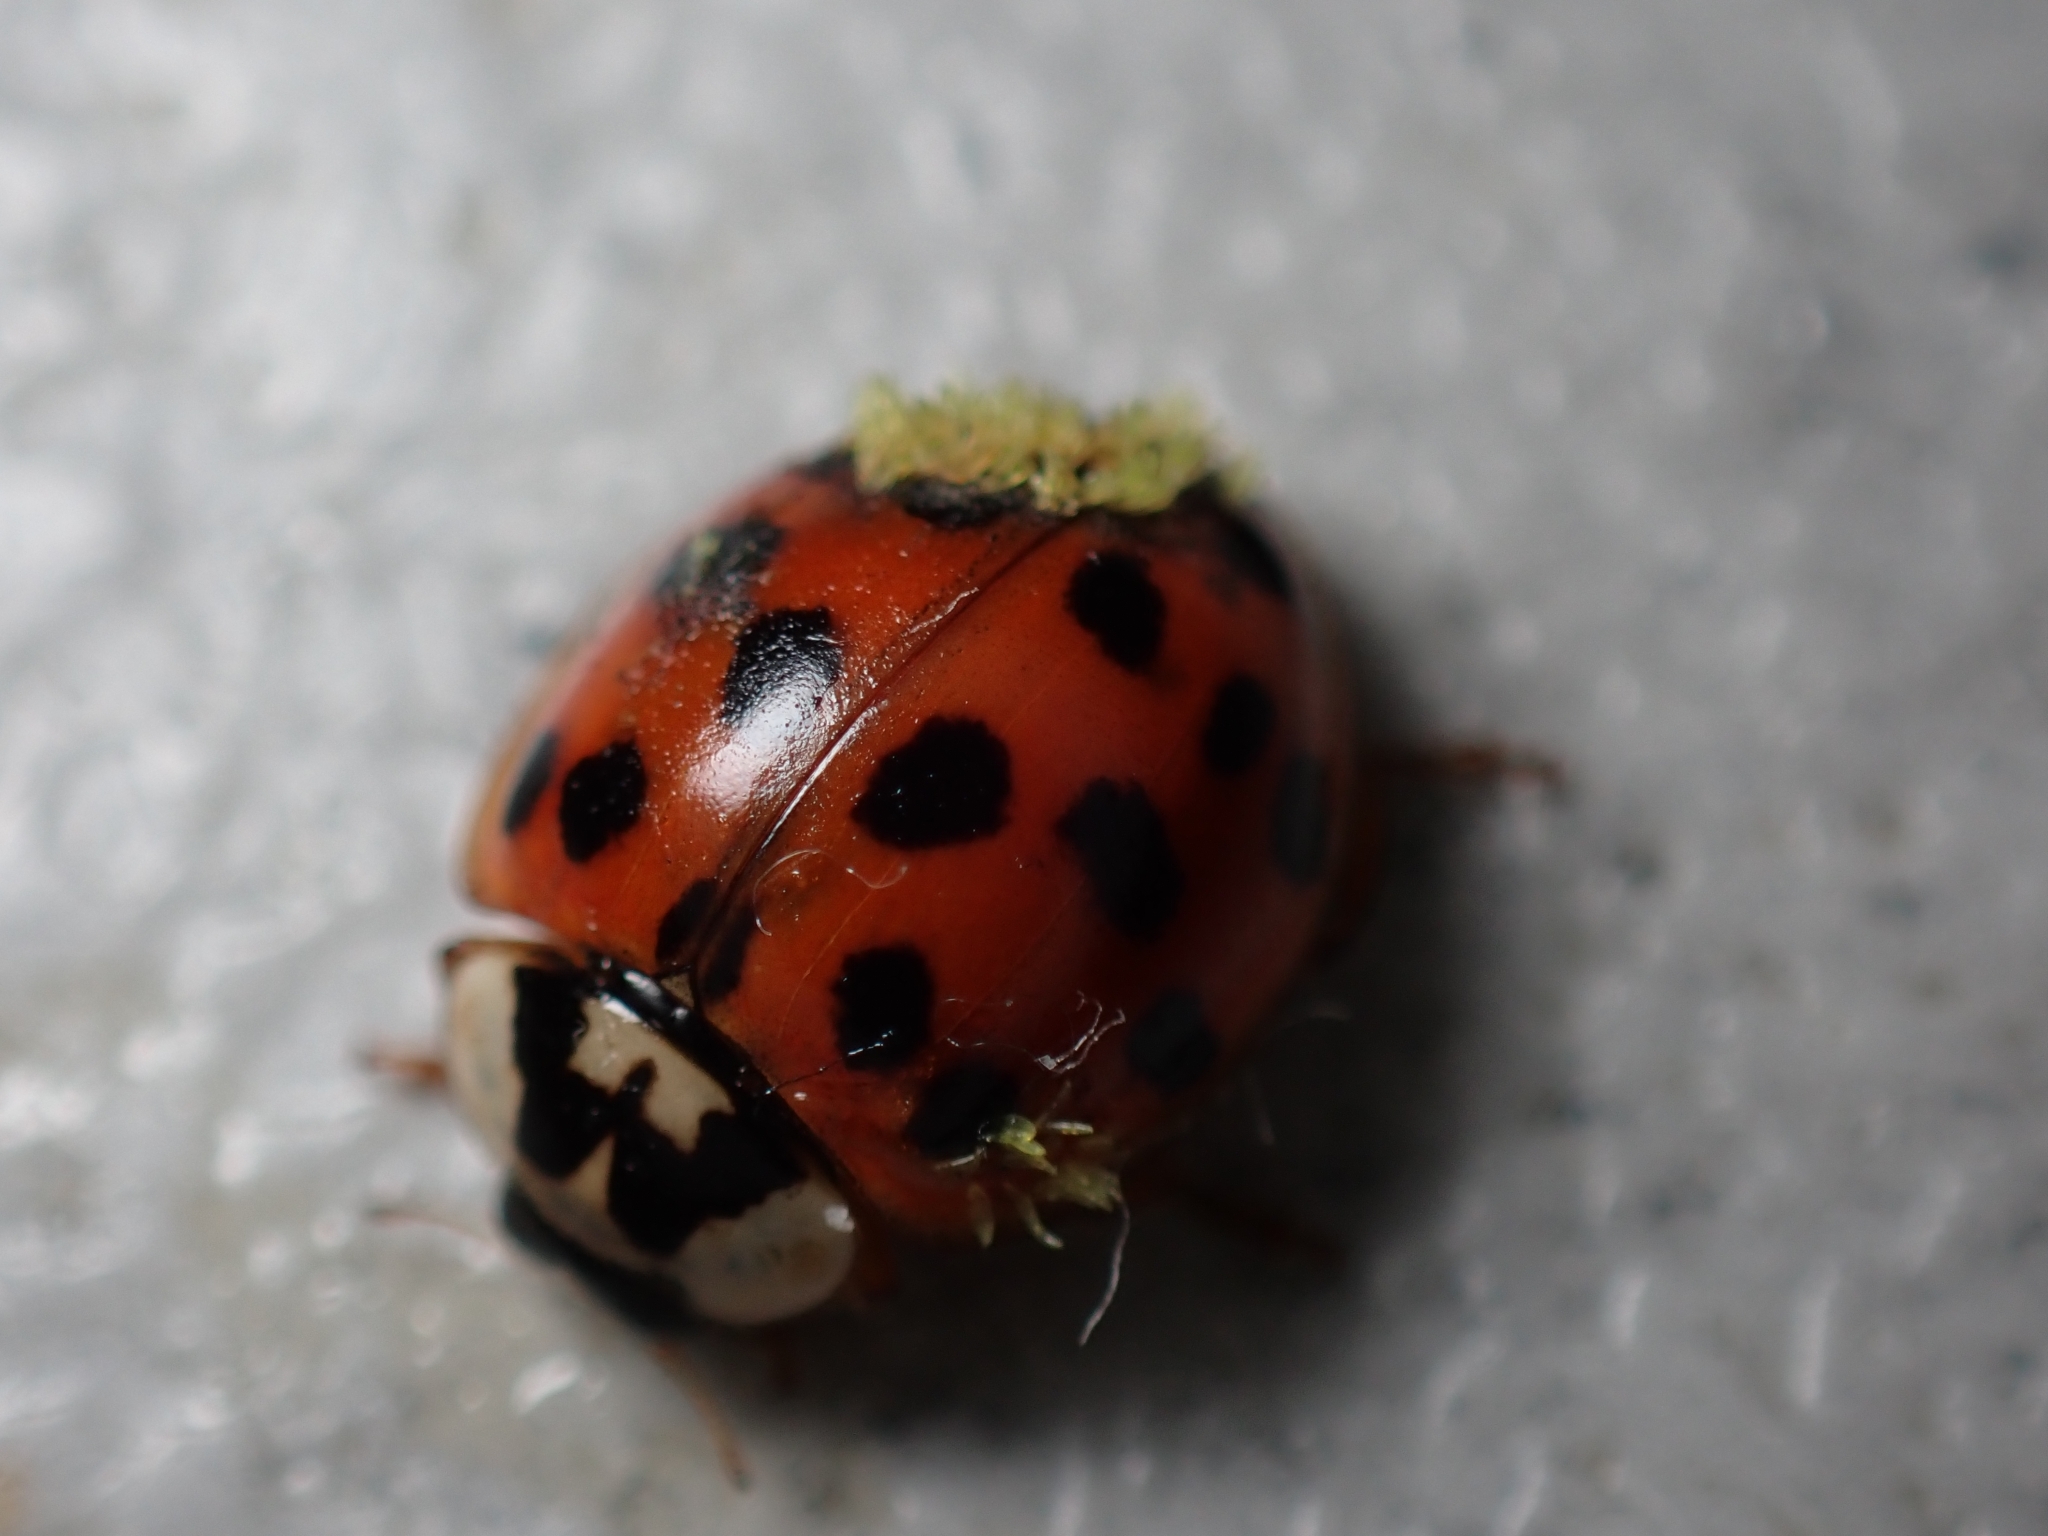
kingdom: Fungi
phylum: Ascomycota
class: Laboulbeniomycetes
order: Laboulbeniales
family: Laboulbeniaceae
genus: Hesperomyces
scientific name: Hesperomyces harmoniae
